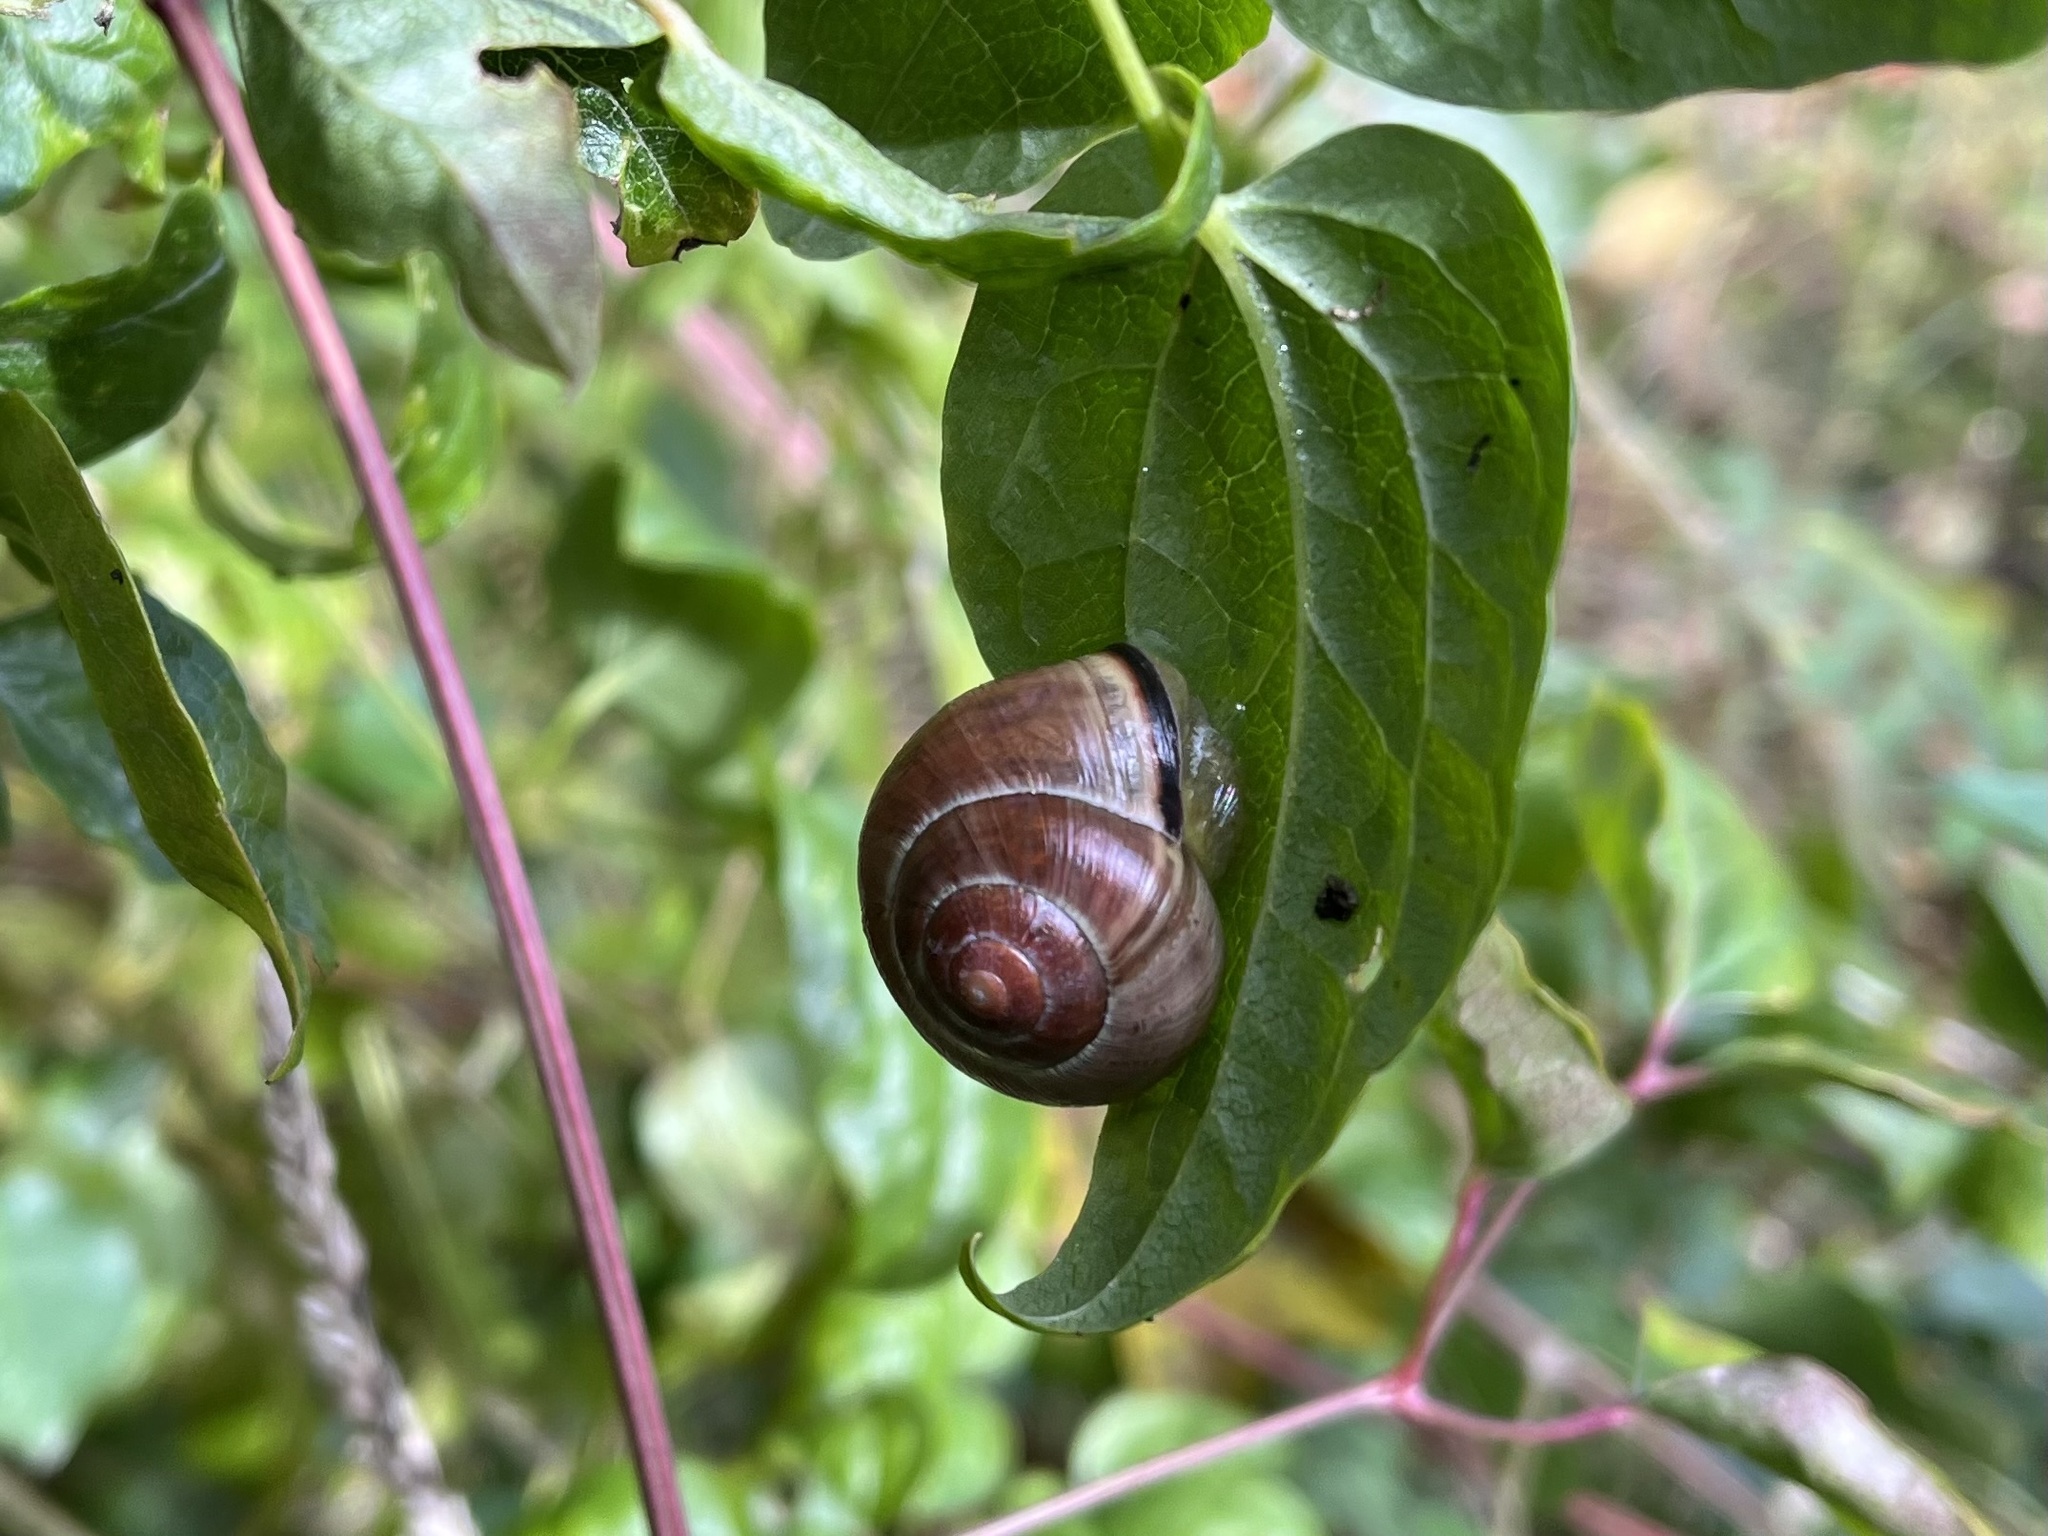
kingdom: Animalia
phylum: Mollusca
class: Gastropoda
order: Stylommatophora
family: Helicidae
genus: Cepaea
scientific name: Cepaea nemoralis
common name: Grovesnail
